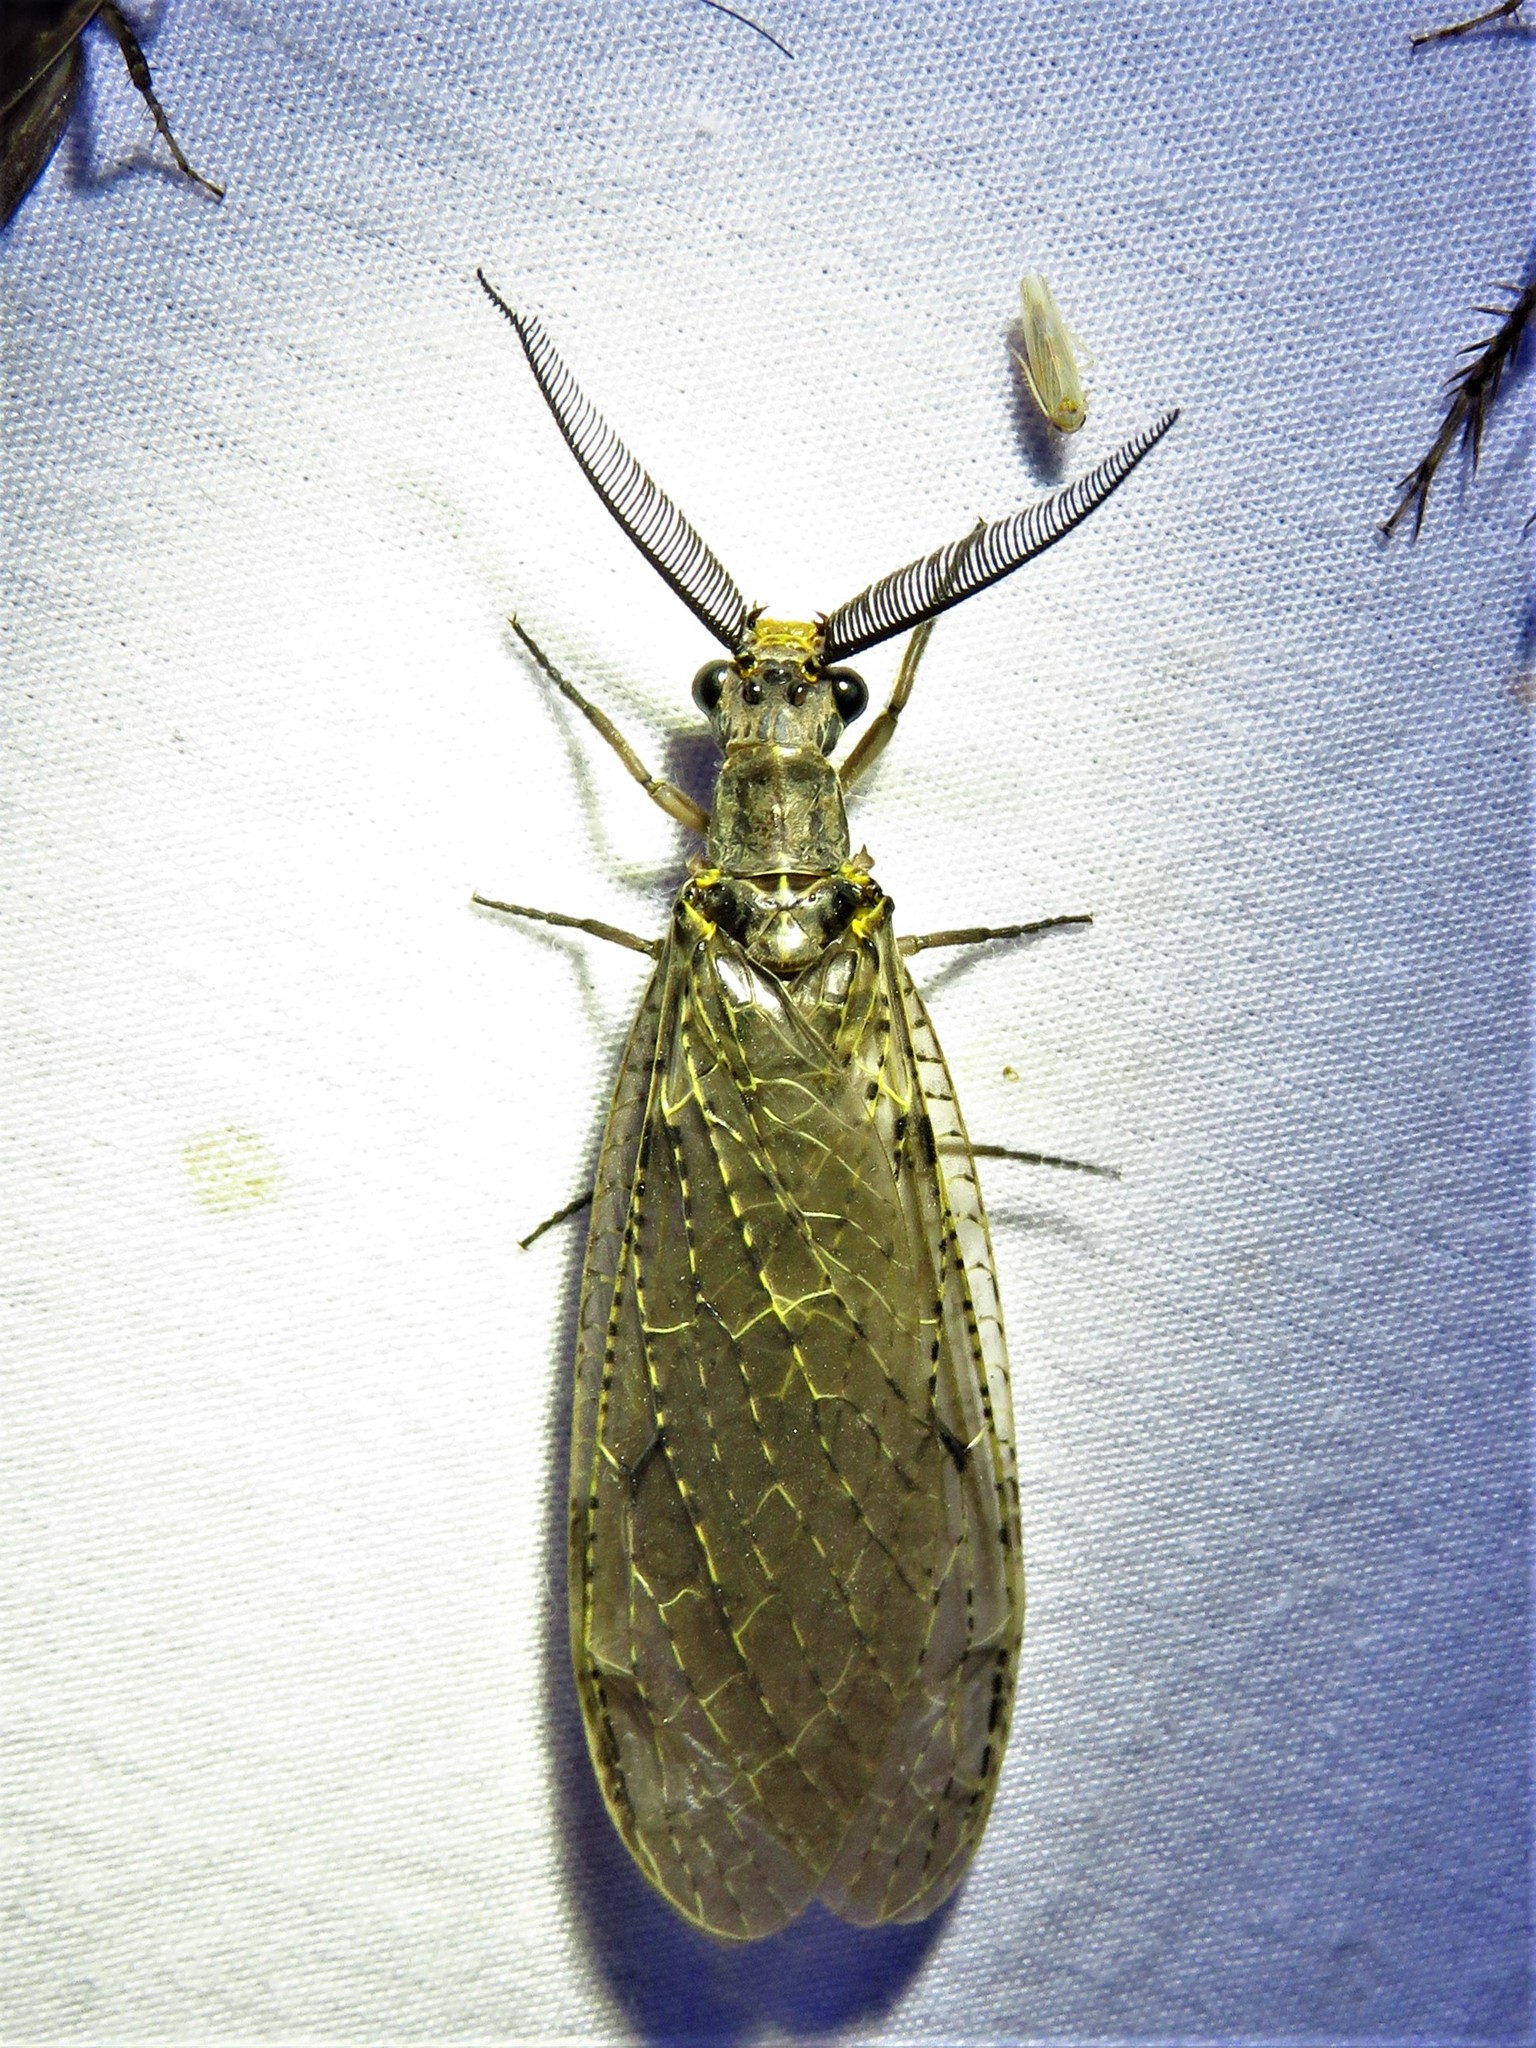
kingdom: Animalia
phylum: Arthropoda
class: Insecta
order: Megaloptera
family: Corydalidae
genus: Chauliodes
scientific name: Chauliodes rastricornis
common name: Spring fishfly
